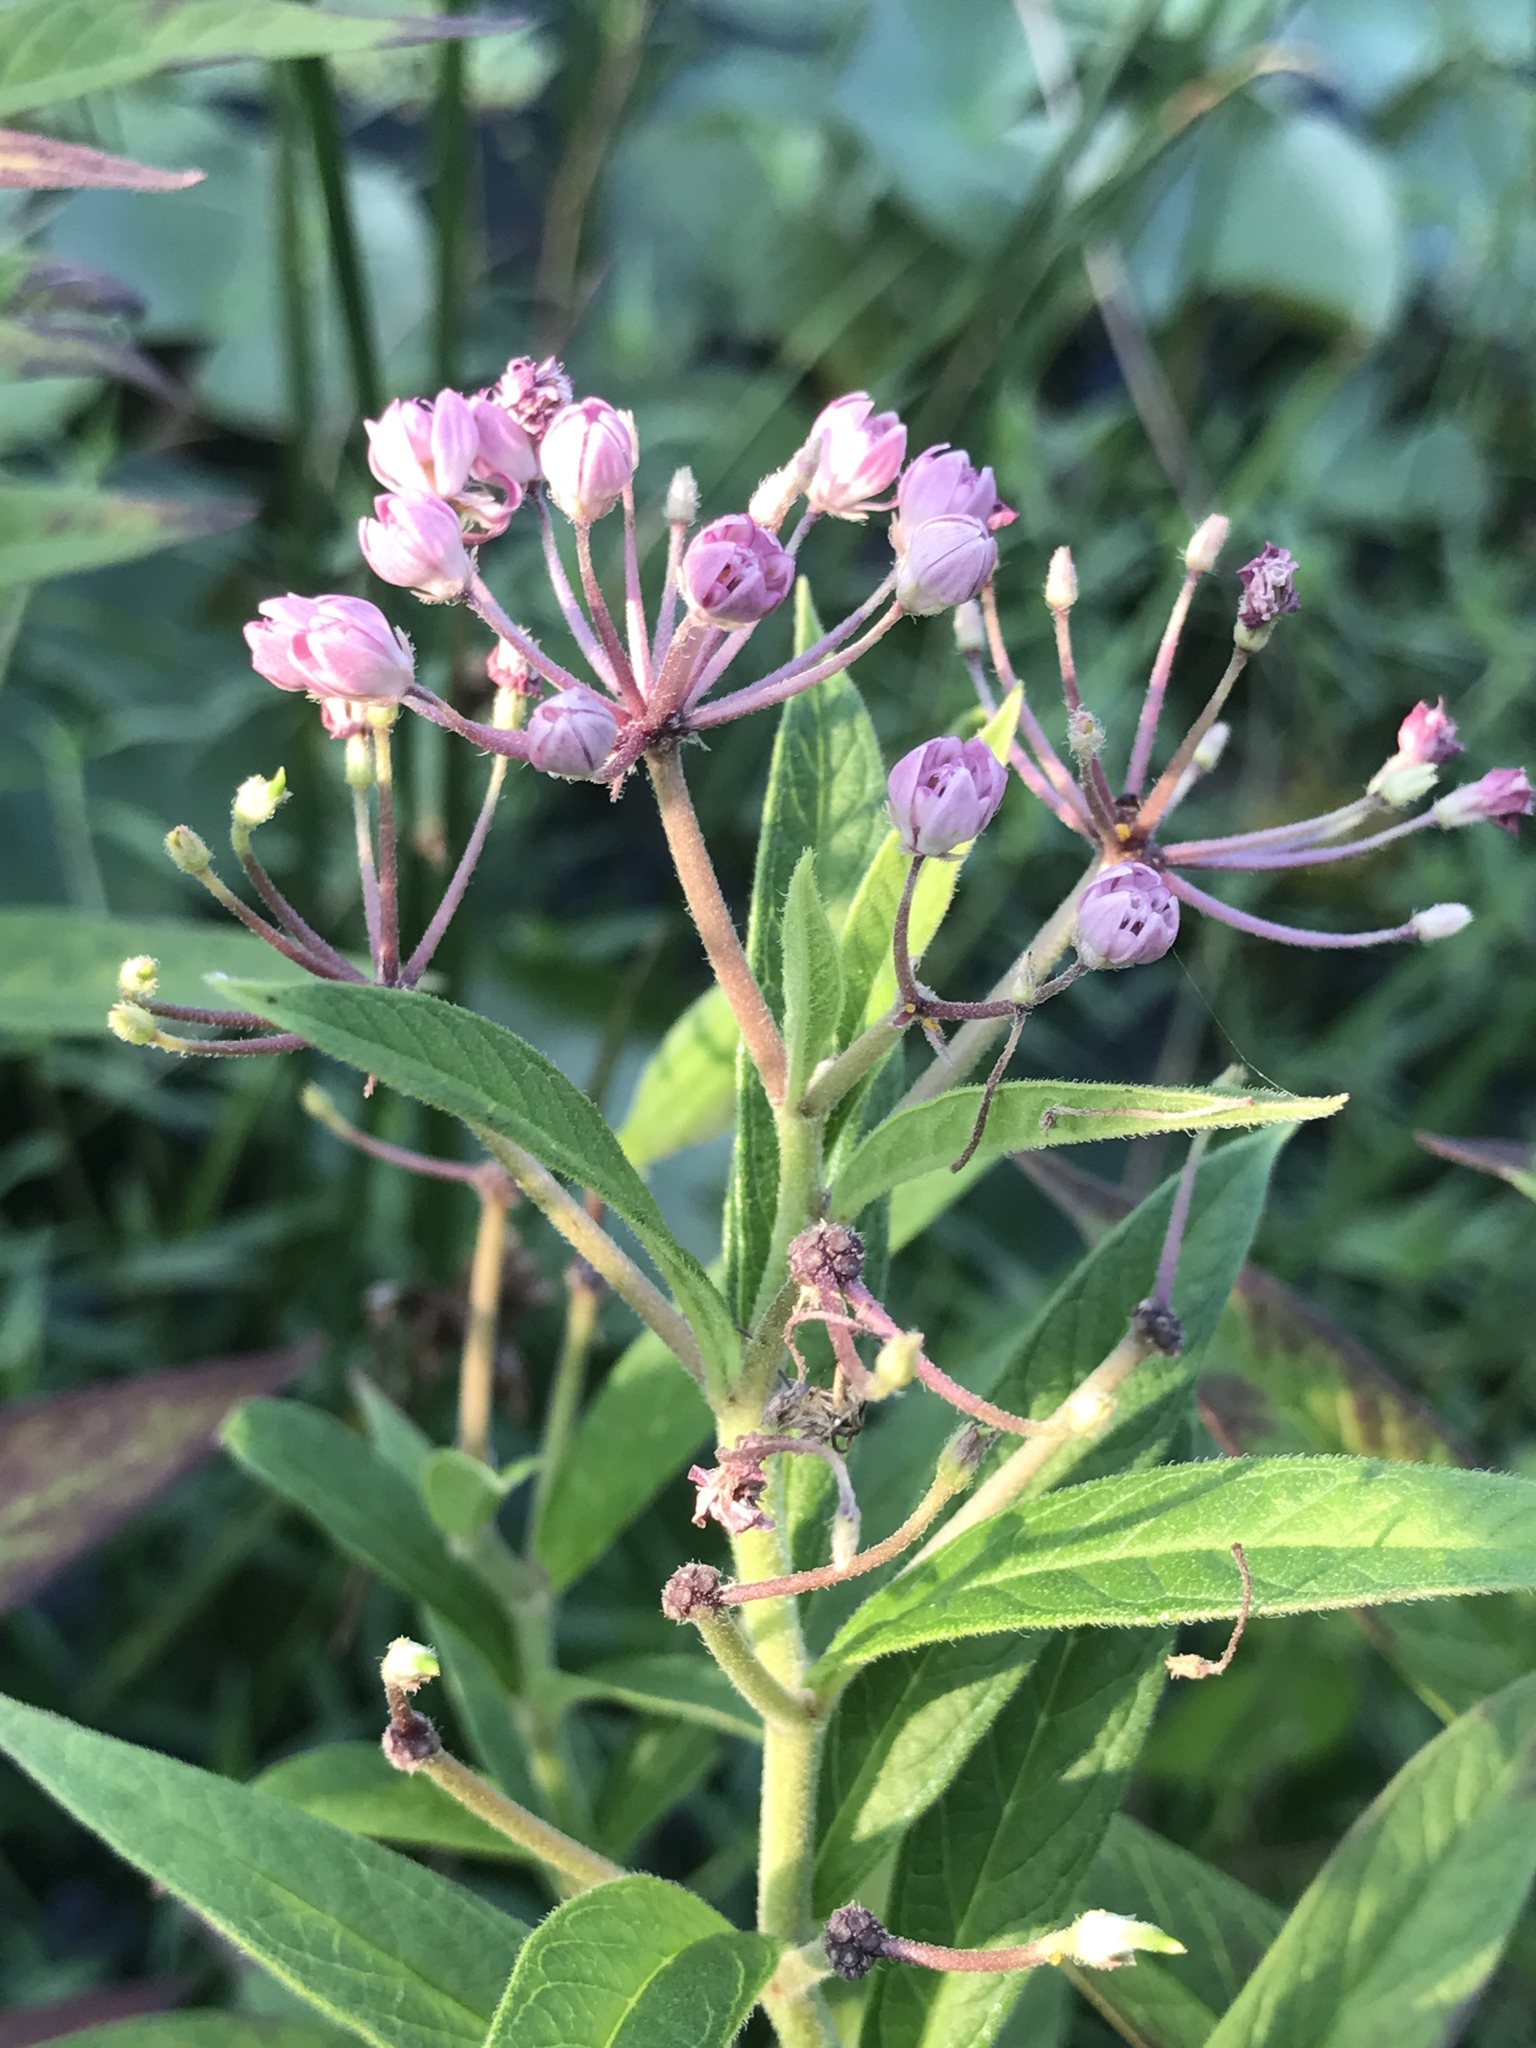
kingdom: Plantae
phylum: Tracheophyta
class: Magnoliopsida
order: Gentianales
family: Apocynaceae
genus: Asclepias
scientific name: Asclepias incarnata
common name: Swamp milkweed
